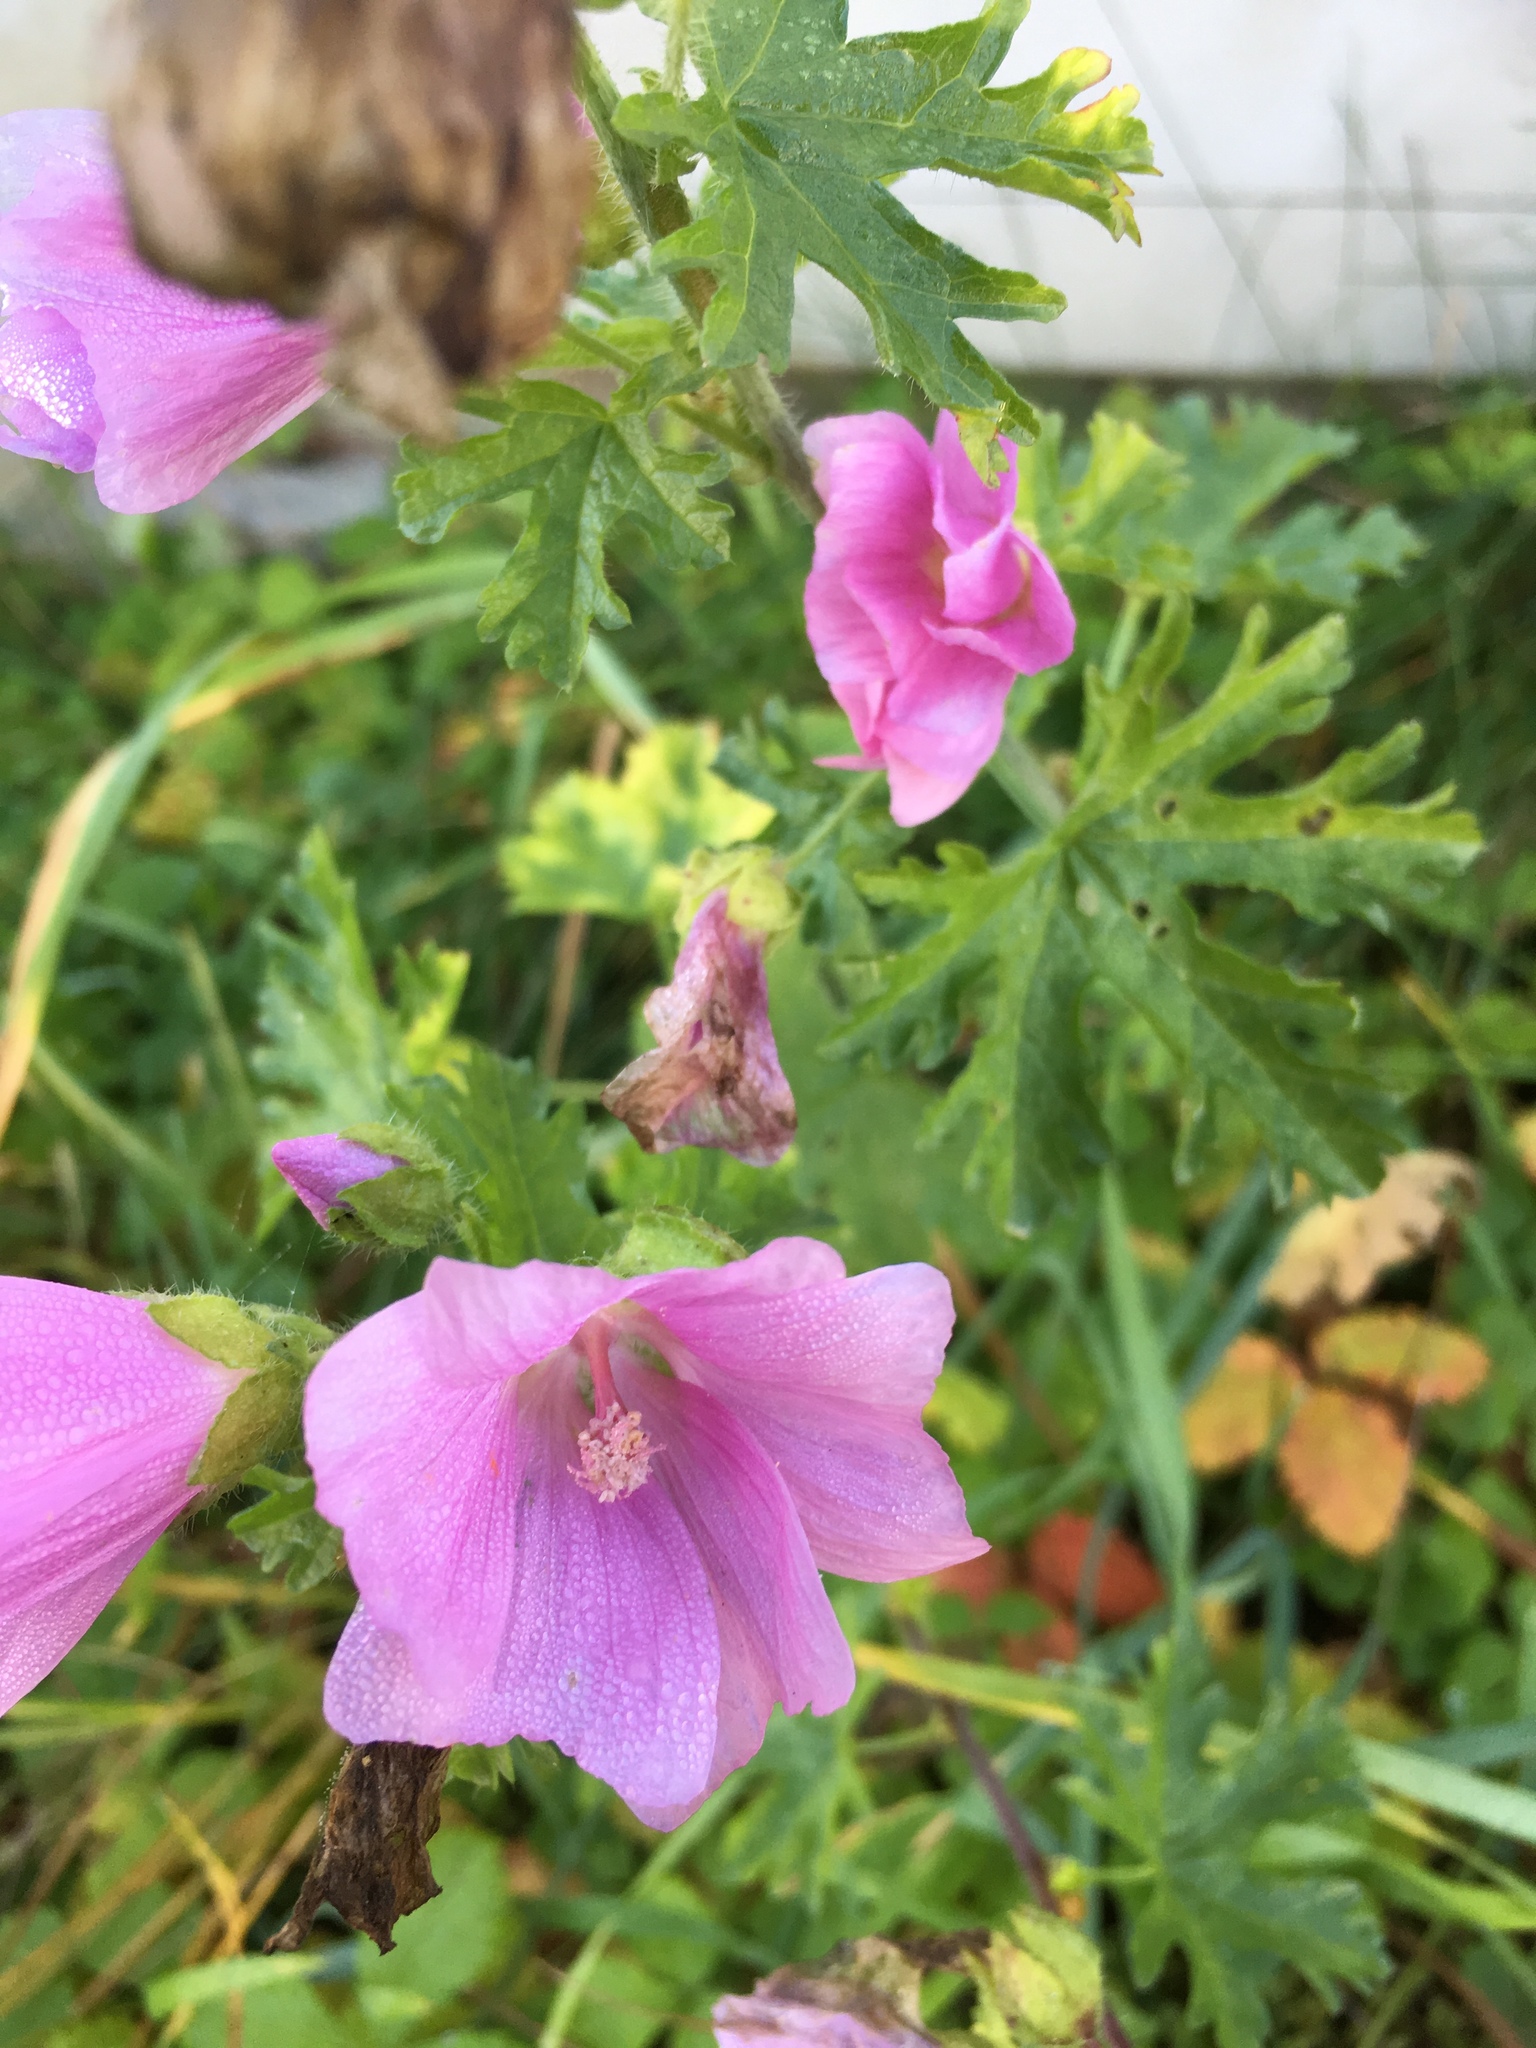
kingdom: Plantae
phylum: Tracheophyta
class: Magnoliopsida
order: Malvales
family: Malvaceae
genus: Malva
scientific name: Malva moschata
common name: Musk mallow
